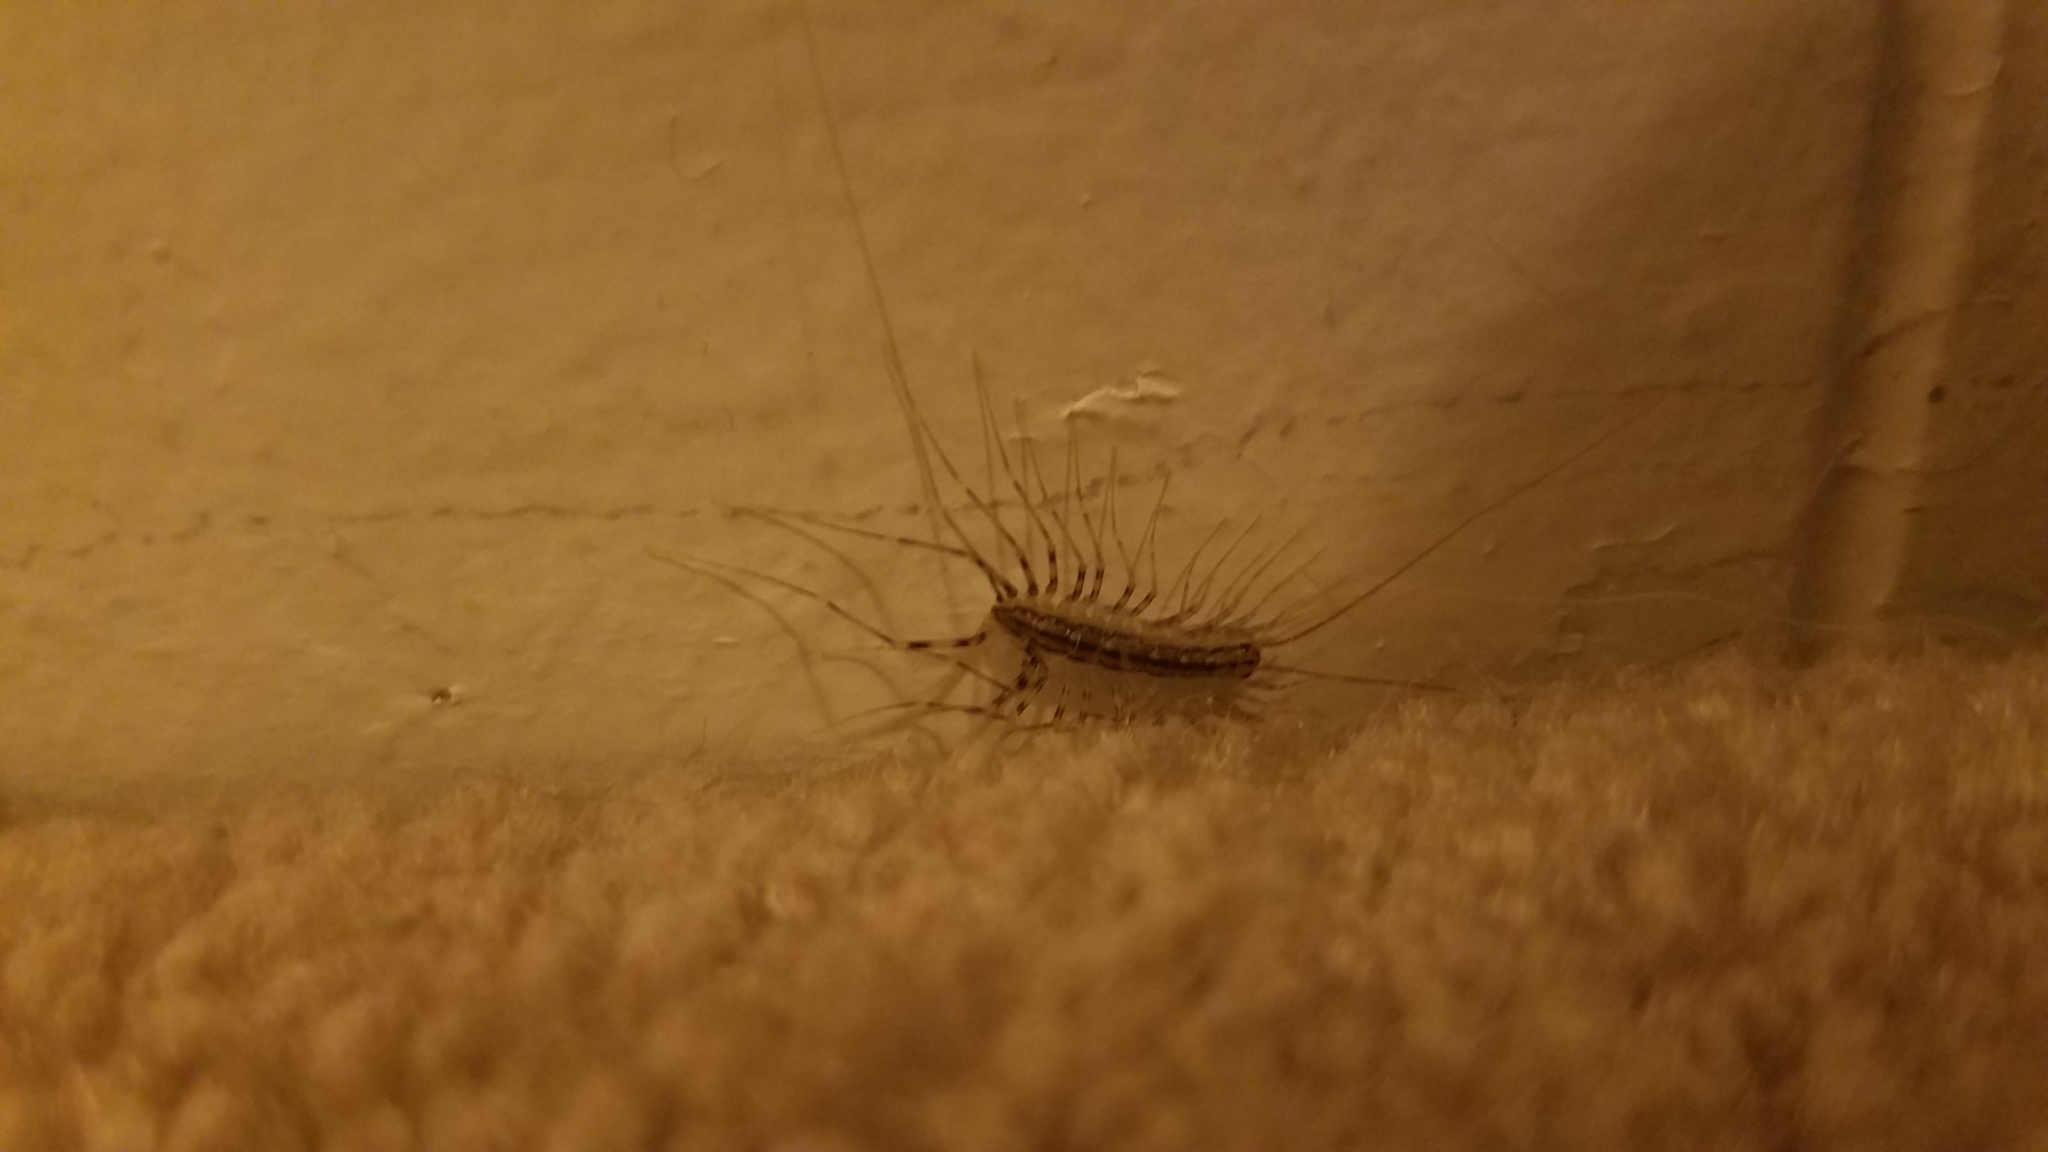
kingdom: Animalia
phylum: Arthropoda
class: Chilopoda
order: Scutigeromorpha
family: Scutigeridae
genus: Scutigera
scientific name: Scutigera coleoptrata
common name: House centipede
